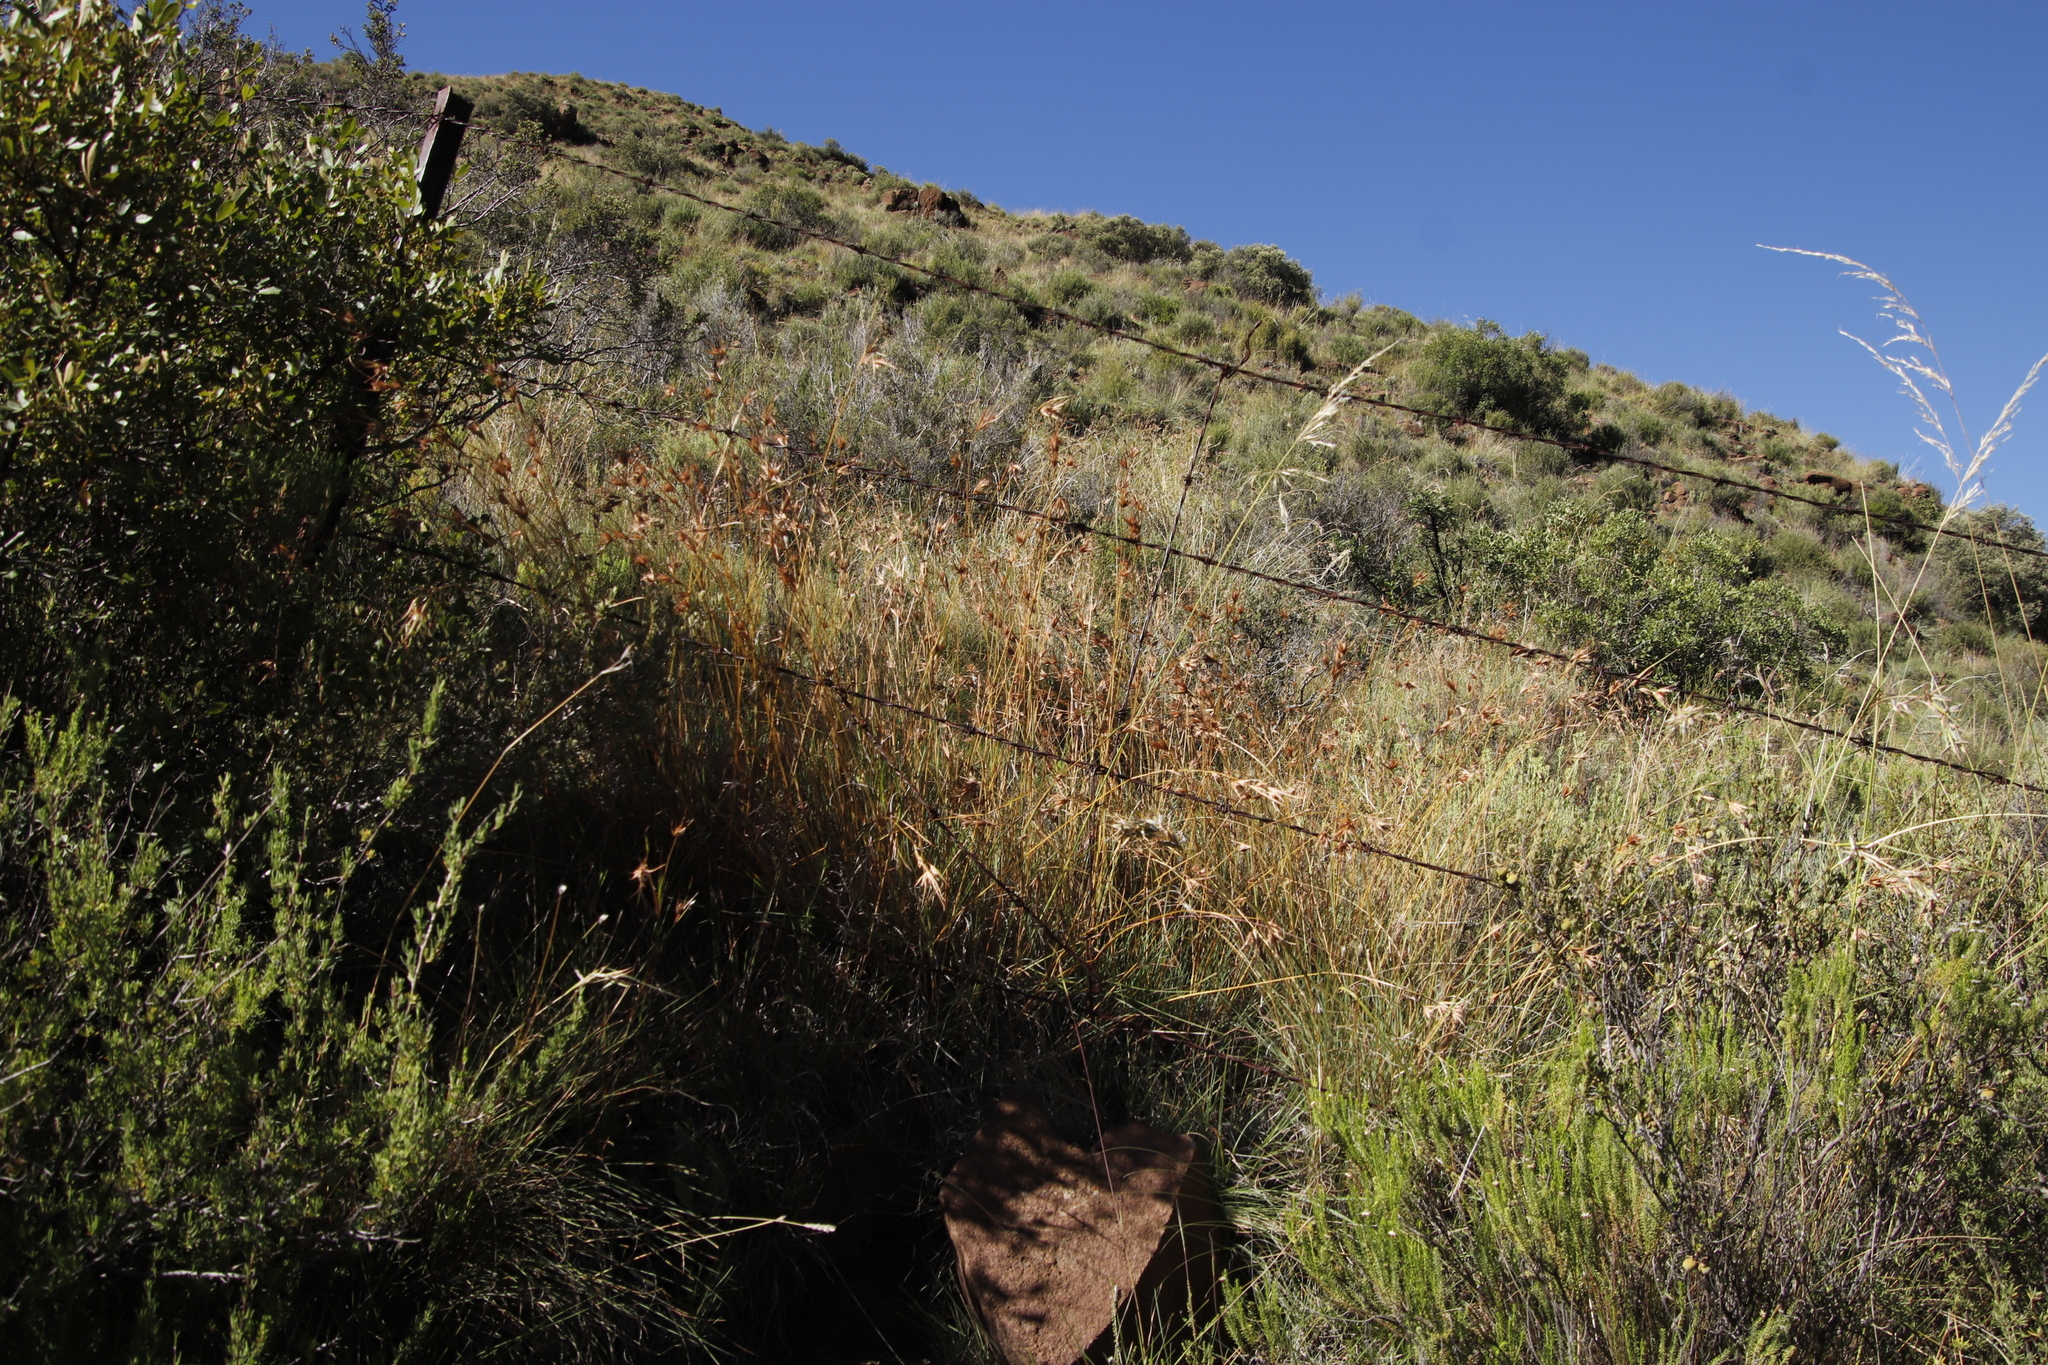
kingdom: Plantae
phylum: Tracheophyta
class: Liliopsida
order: Poales
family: Poaceae
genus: Themeda
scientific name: Themeda triandra
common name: Kangaroo grass
